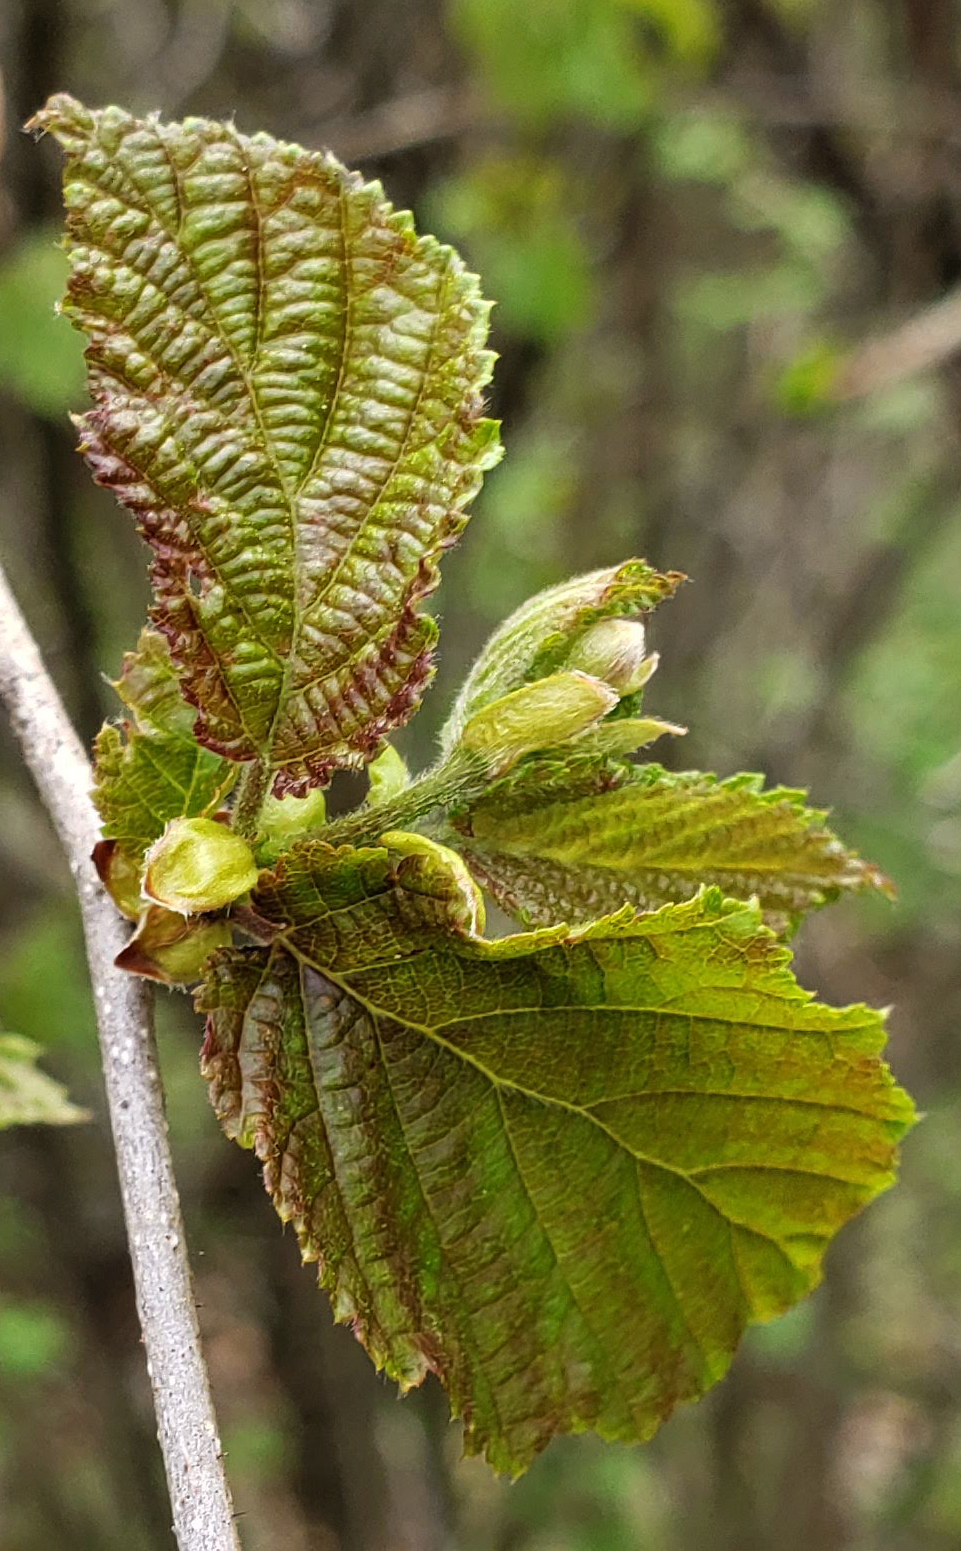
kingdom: Plantae
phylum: Tracheophyta
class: Magnoliopsida
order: Fagales
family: Betulaceae
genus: Corylus
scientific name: Corylus americana
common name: American hazel
